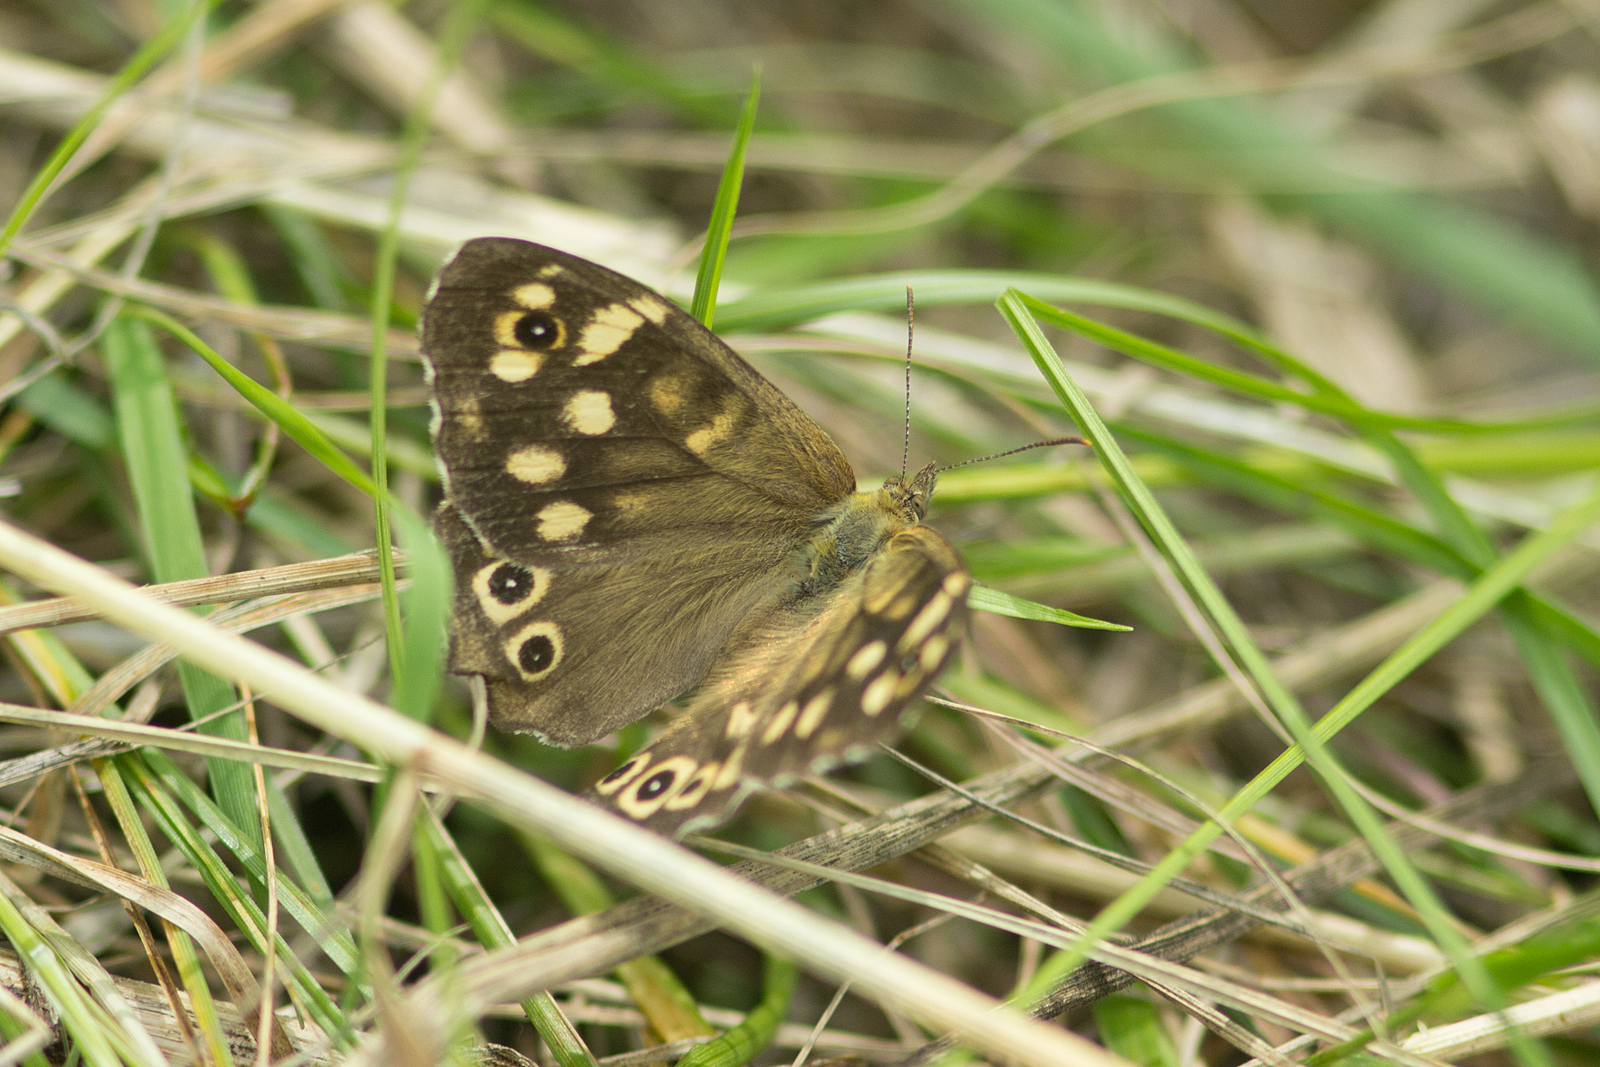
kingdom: Animalia
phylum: Arthropoda
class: Insecta
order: Lepidoptera
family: Nymphalidae
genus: Pararge
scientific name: Pararge aegeria
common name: Speckled wood
